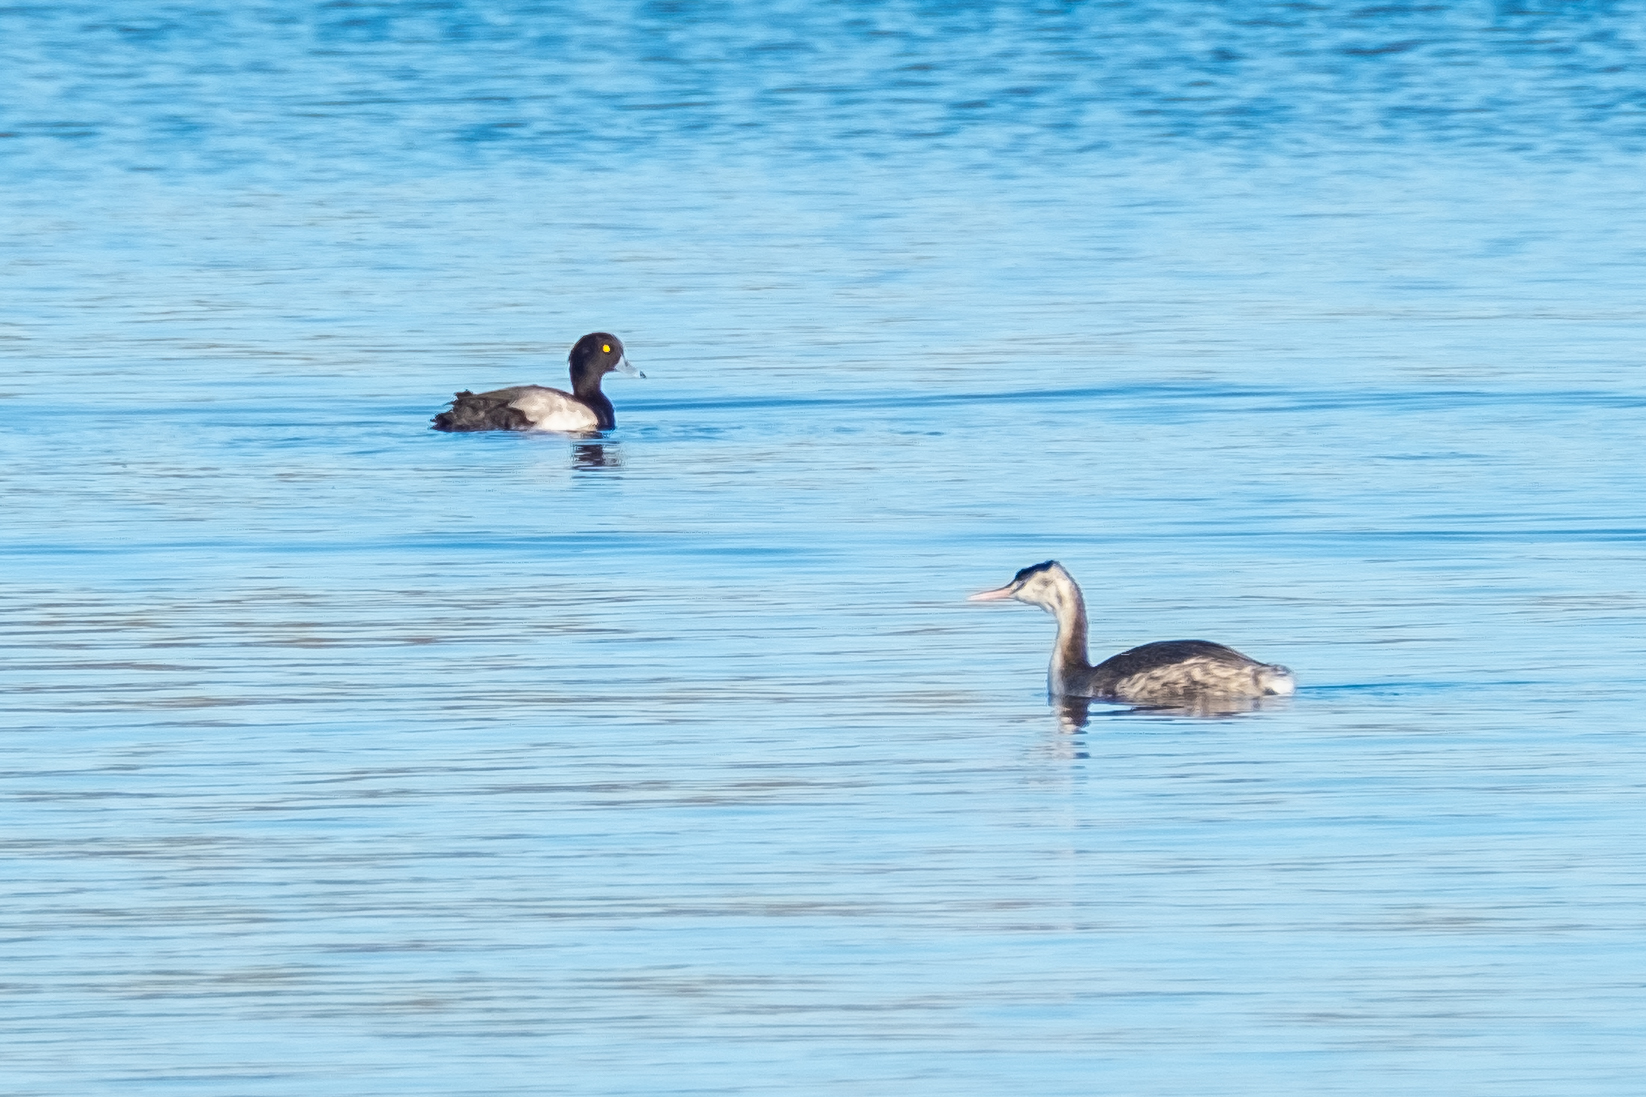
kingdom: Animalia
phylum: Chordata
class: Aves
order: Podicipediformes
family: Podicipedidae
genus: Podiceps
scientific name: Podiceps cristatus
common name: Great crested grebe
